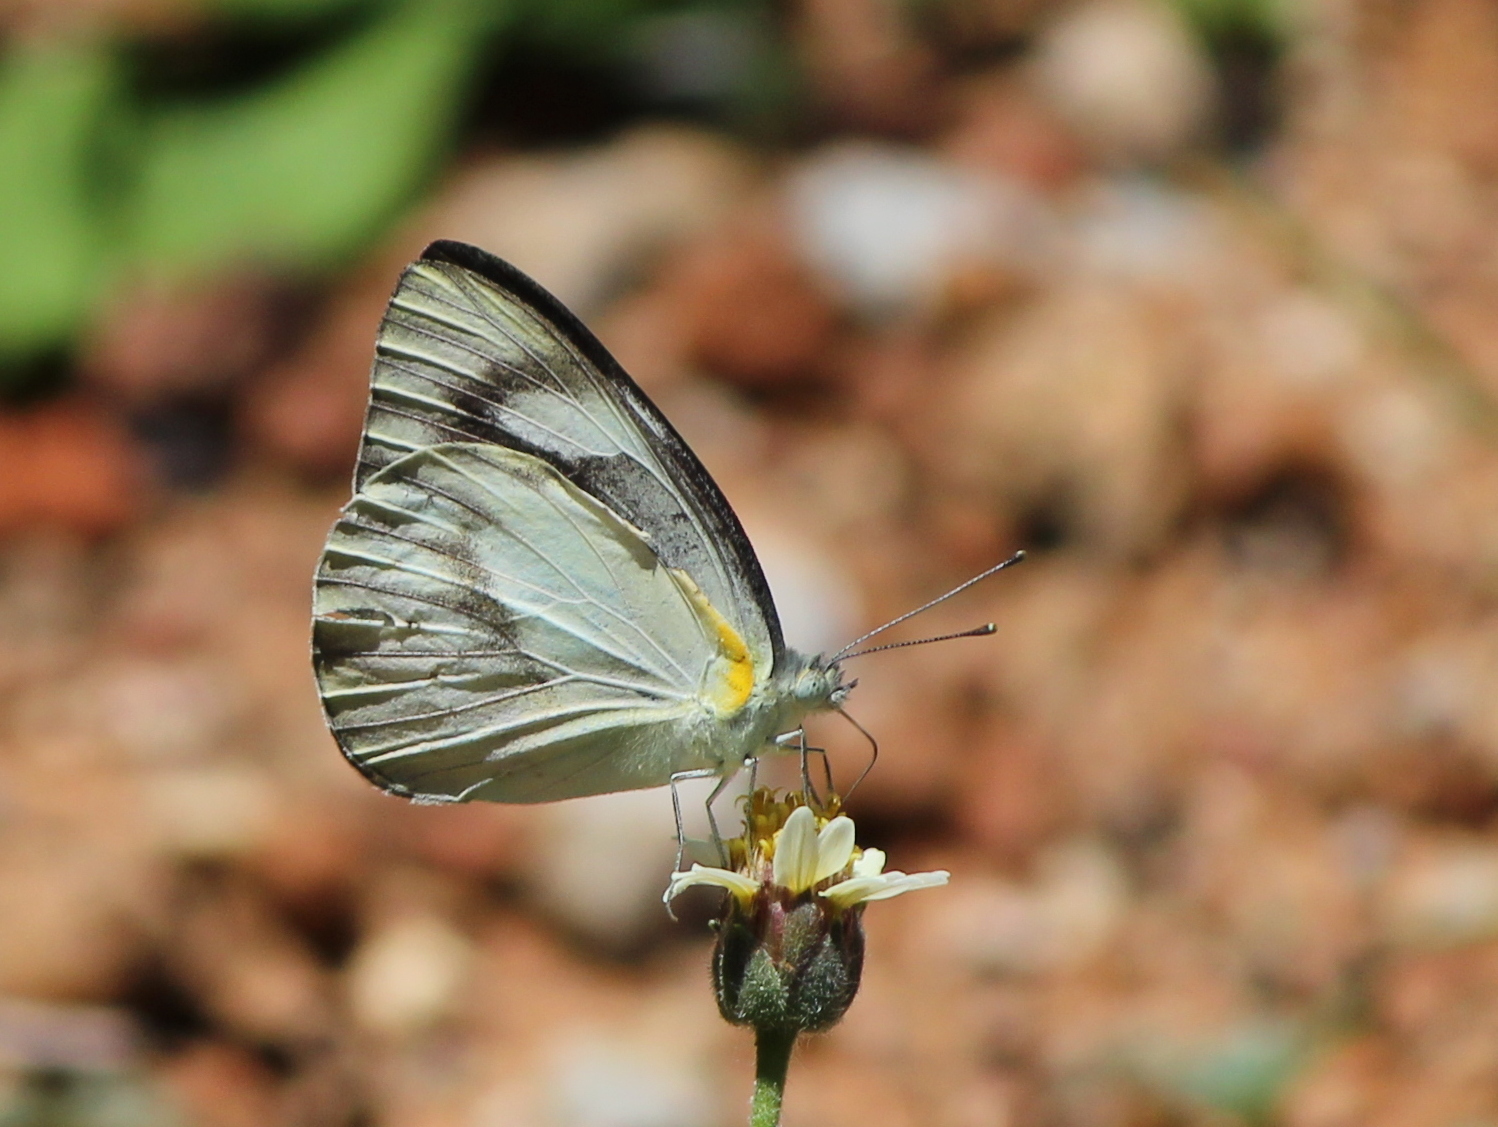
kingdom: Animalia
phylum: Arthropoda
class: Insecta
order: Lepidoptera
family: Pieridae
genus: Appias
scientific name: Appias libythea
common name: Striped albatross
